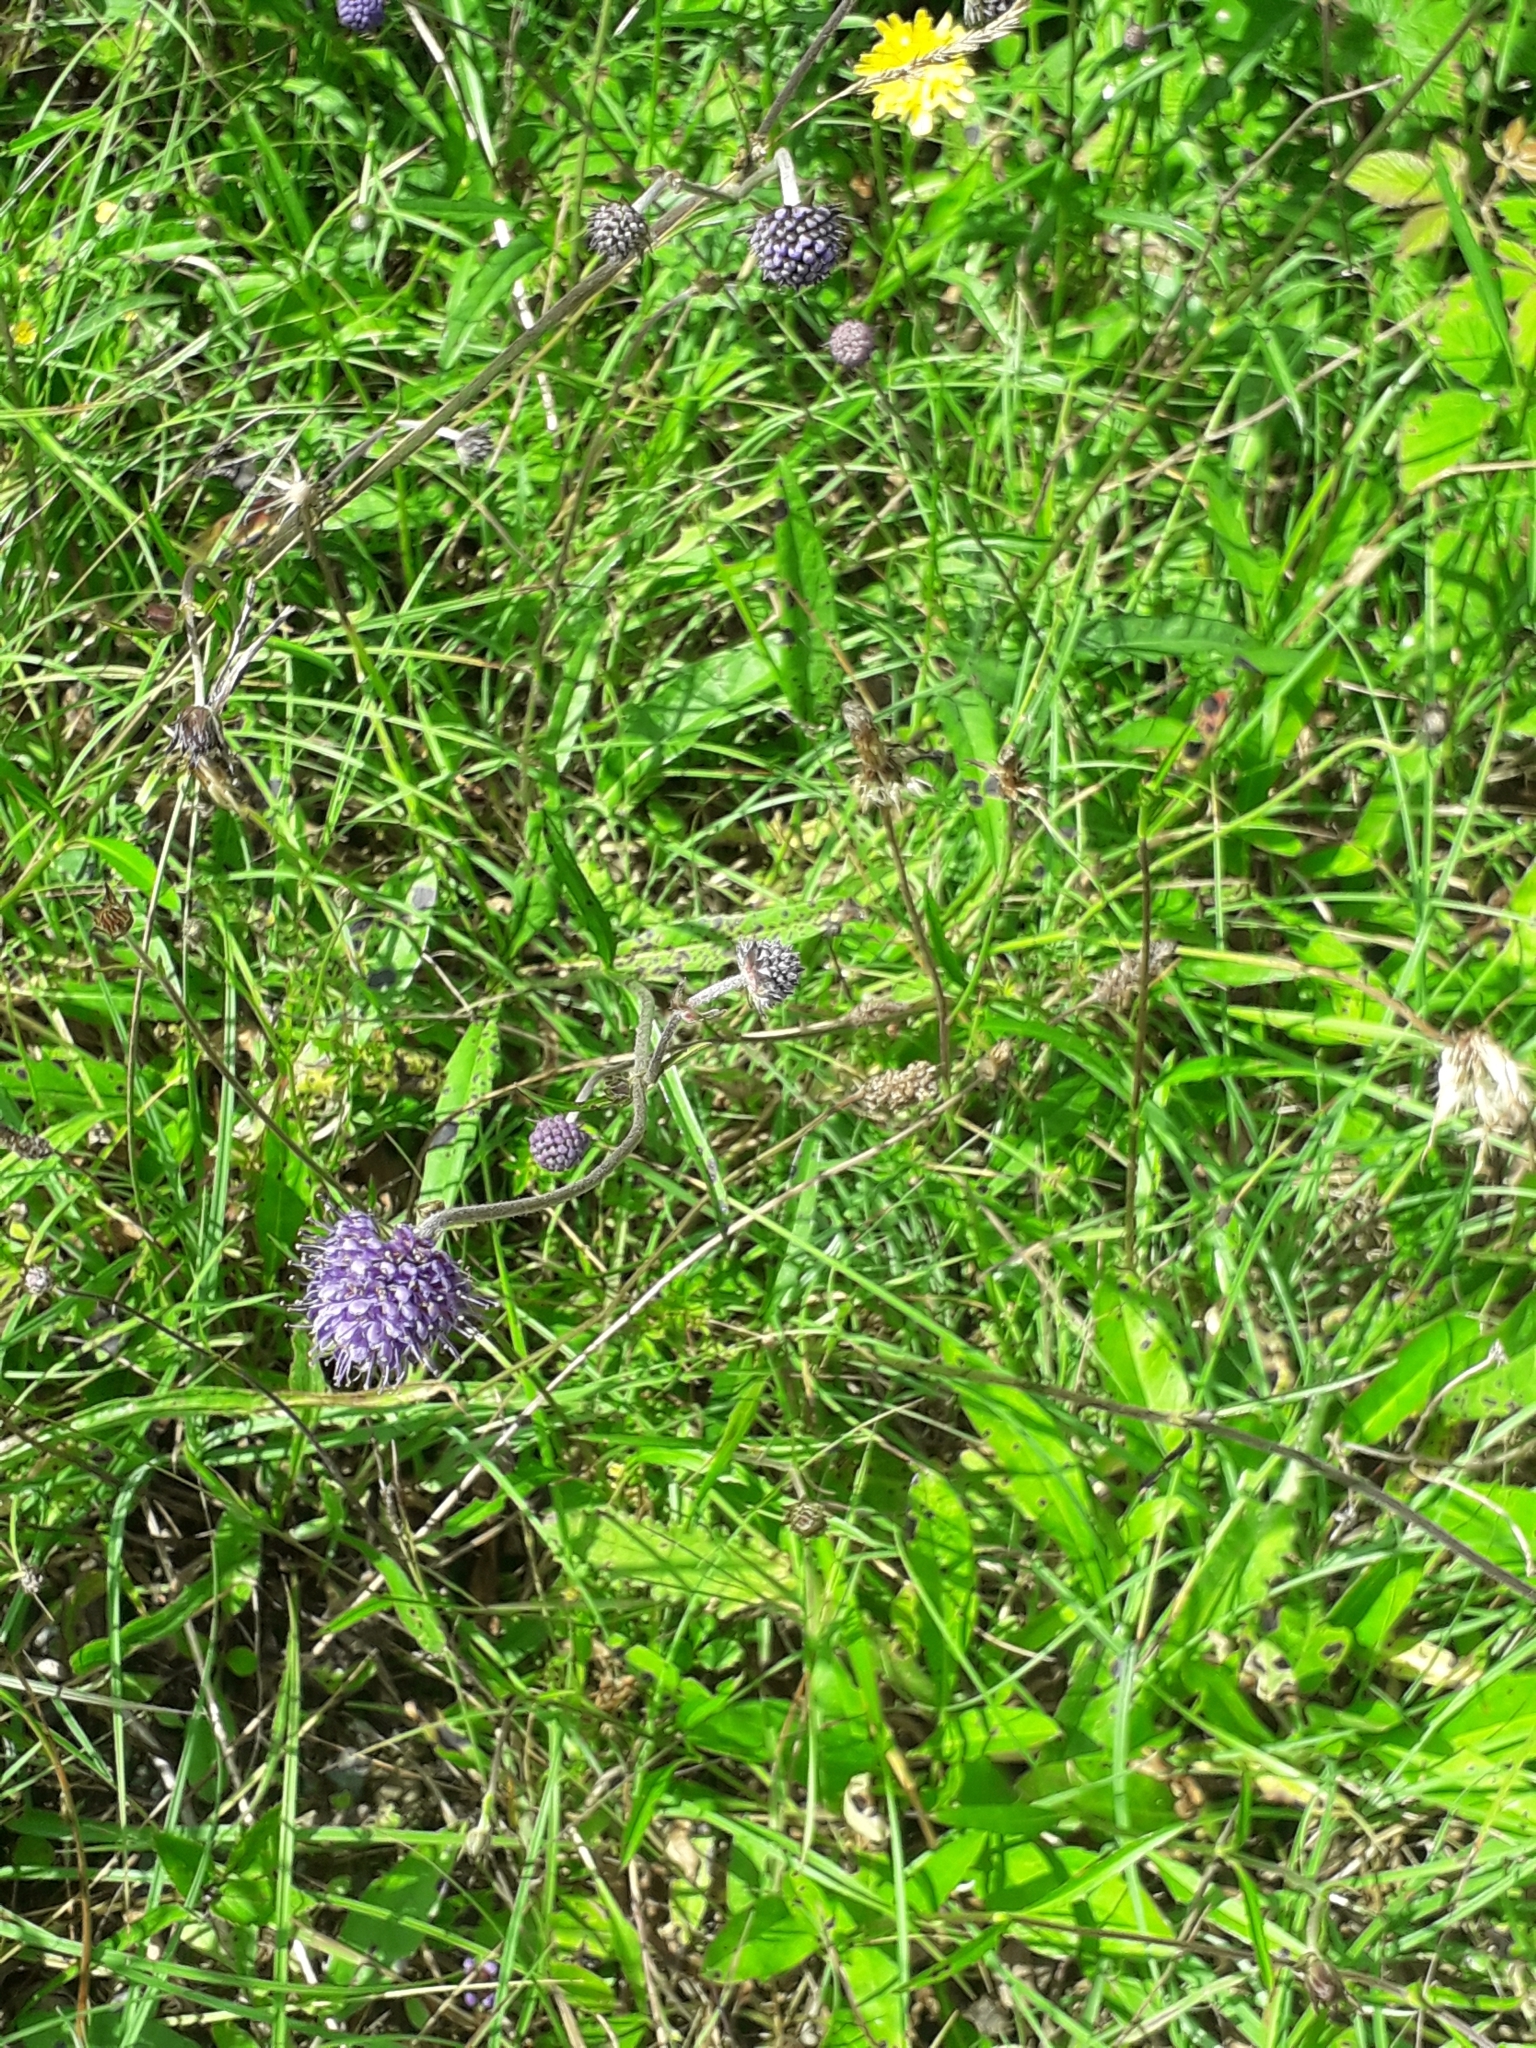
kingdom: Plantae
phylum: Tracheophyta
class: Magnoliopsida
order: Dipsacales
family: Caprifoliaceae
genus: Succisa
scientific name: Succisa pratensis
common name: Devil's-bit
